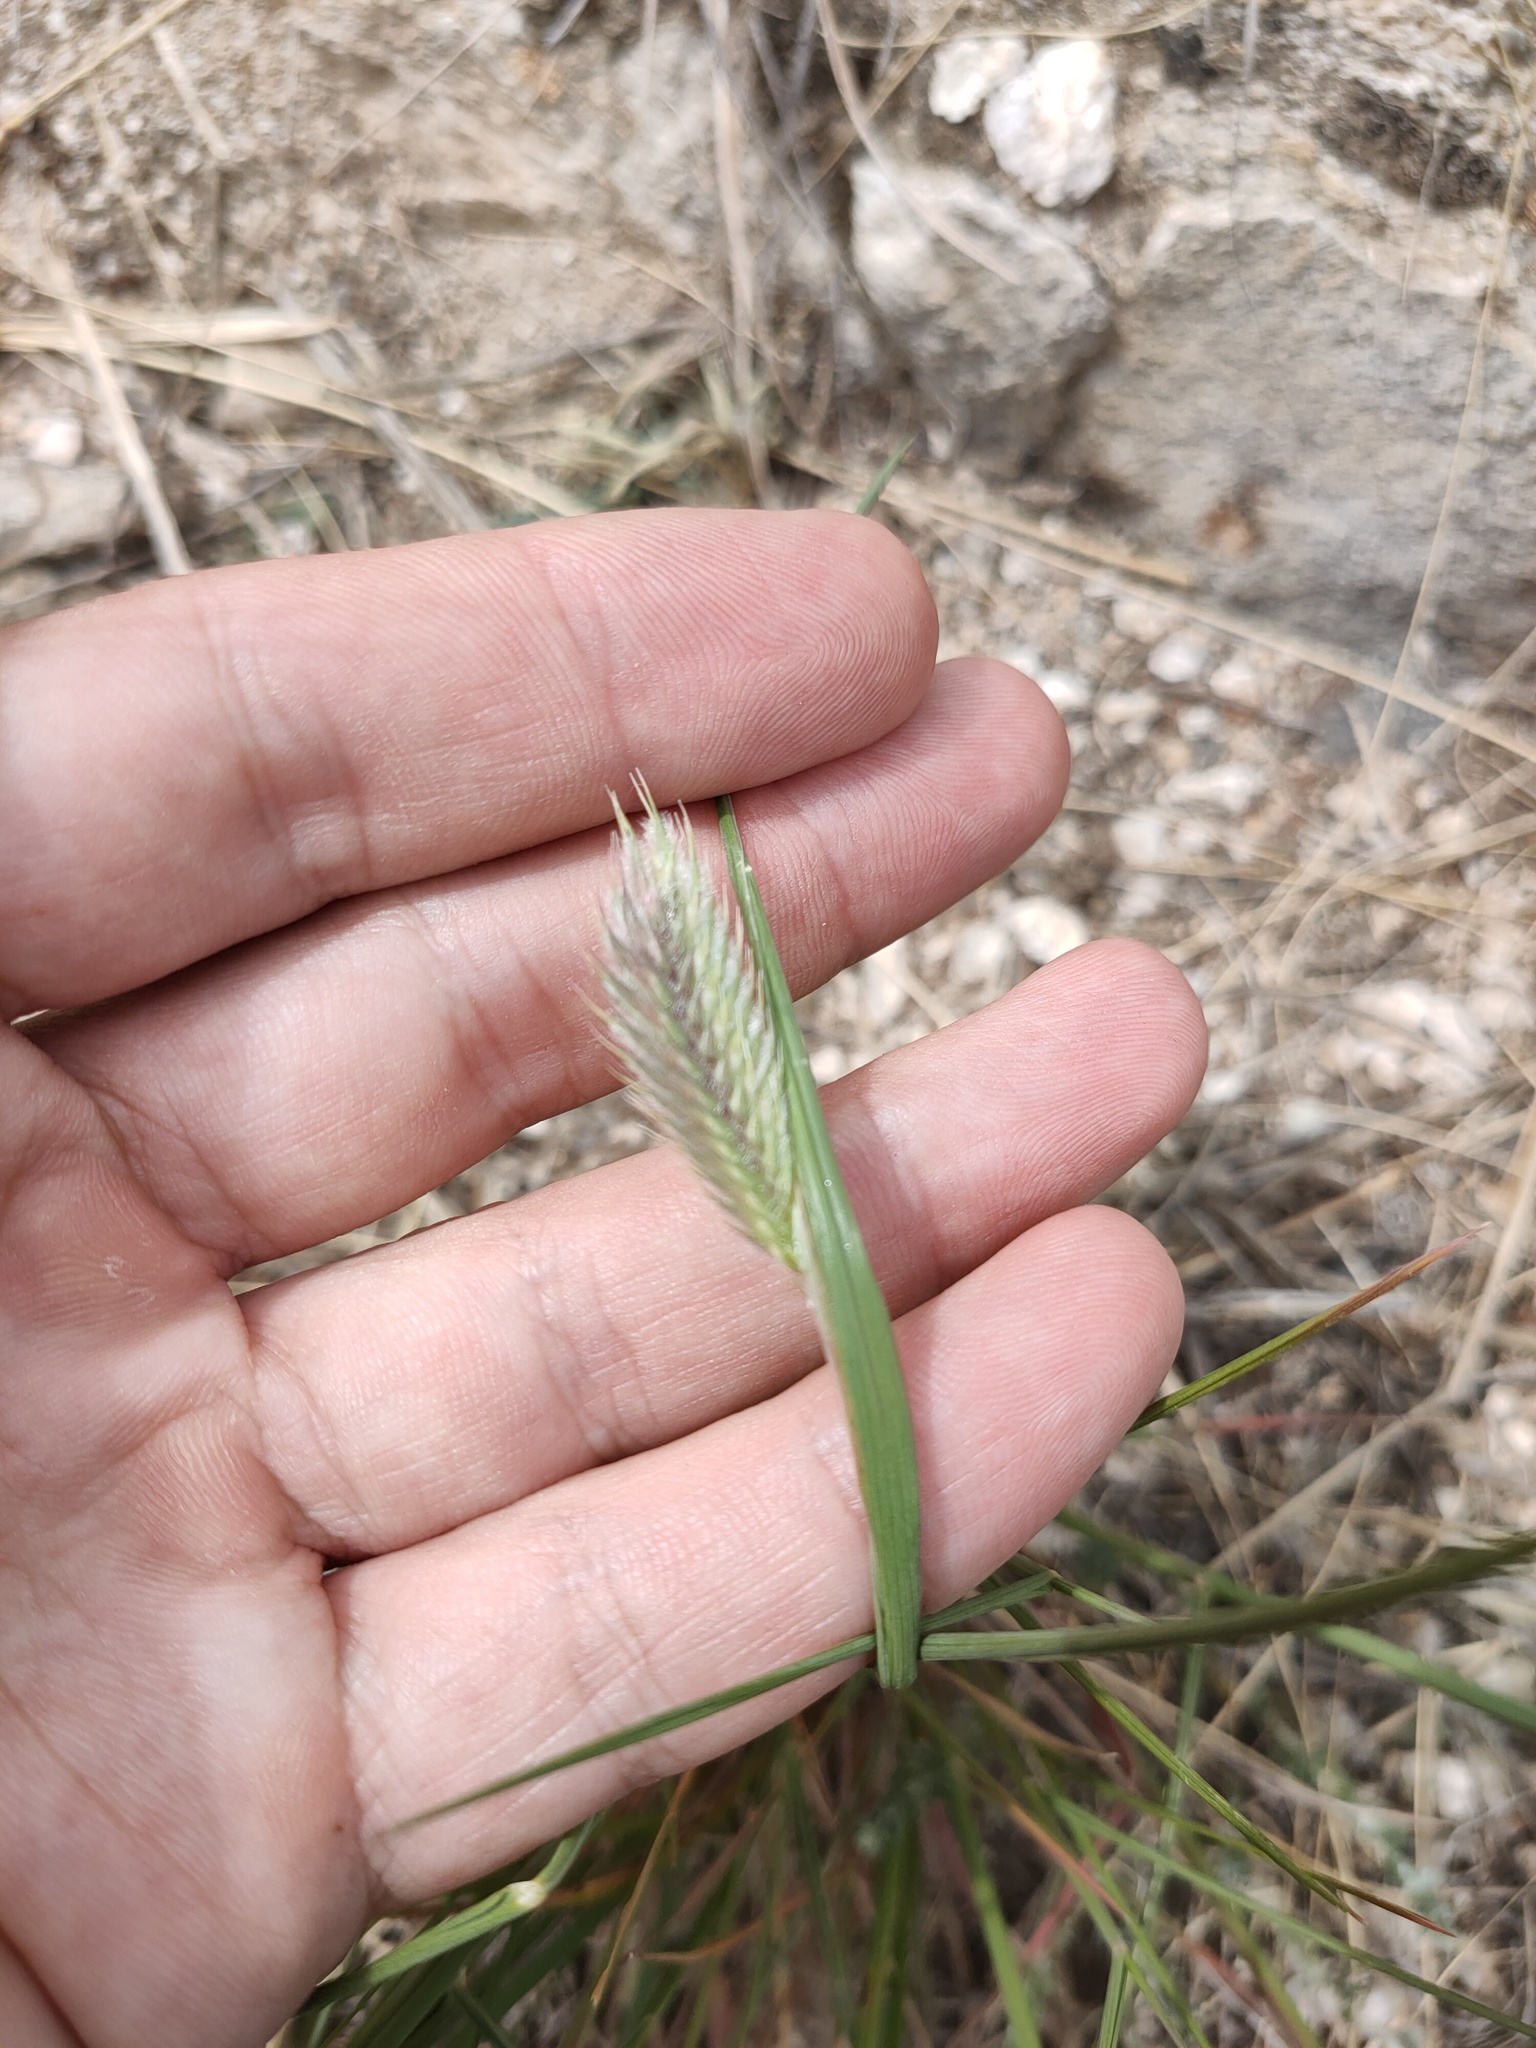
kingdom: Plantae
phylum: Tracheophyta
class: Liliopsida
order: Poales
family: Poaceae
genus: Agropyron
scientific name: Agropyron cristatum
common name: Crested wheatgrass
